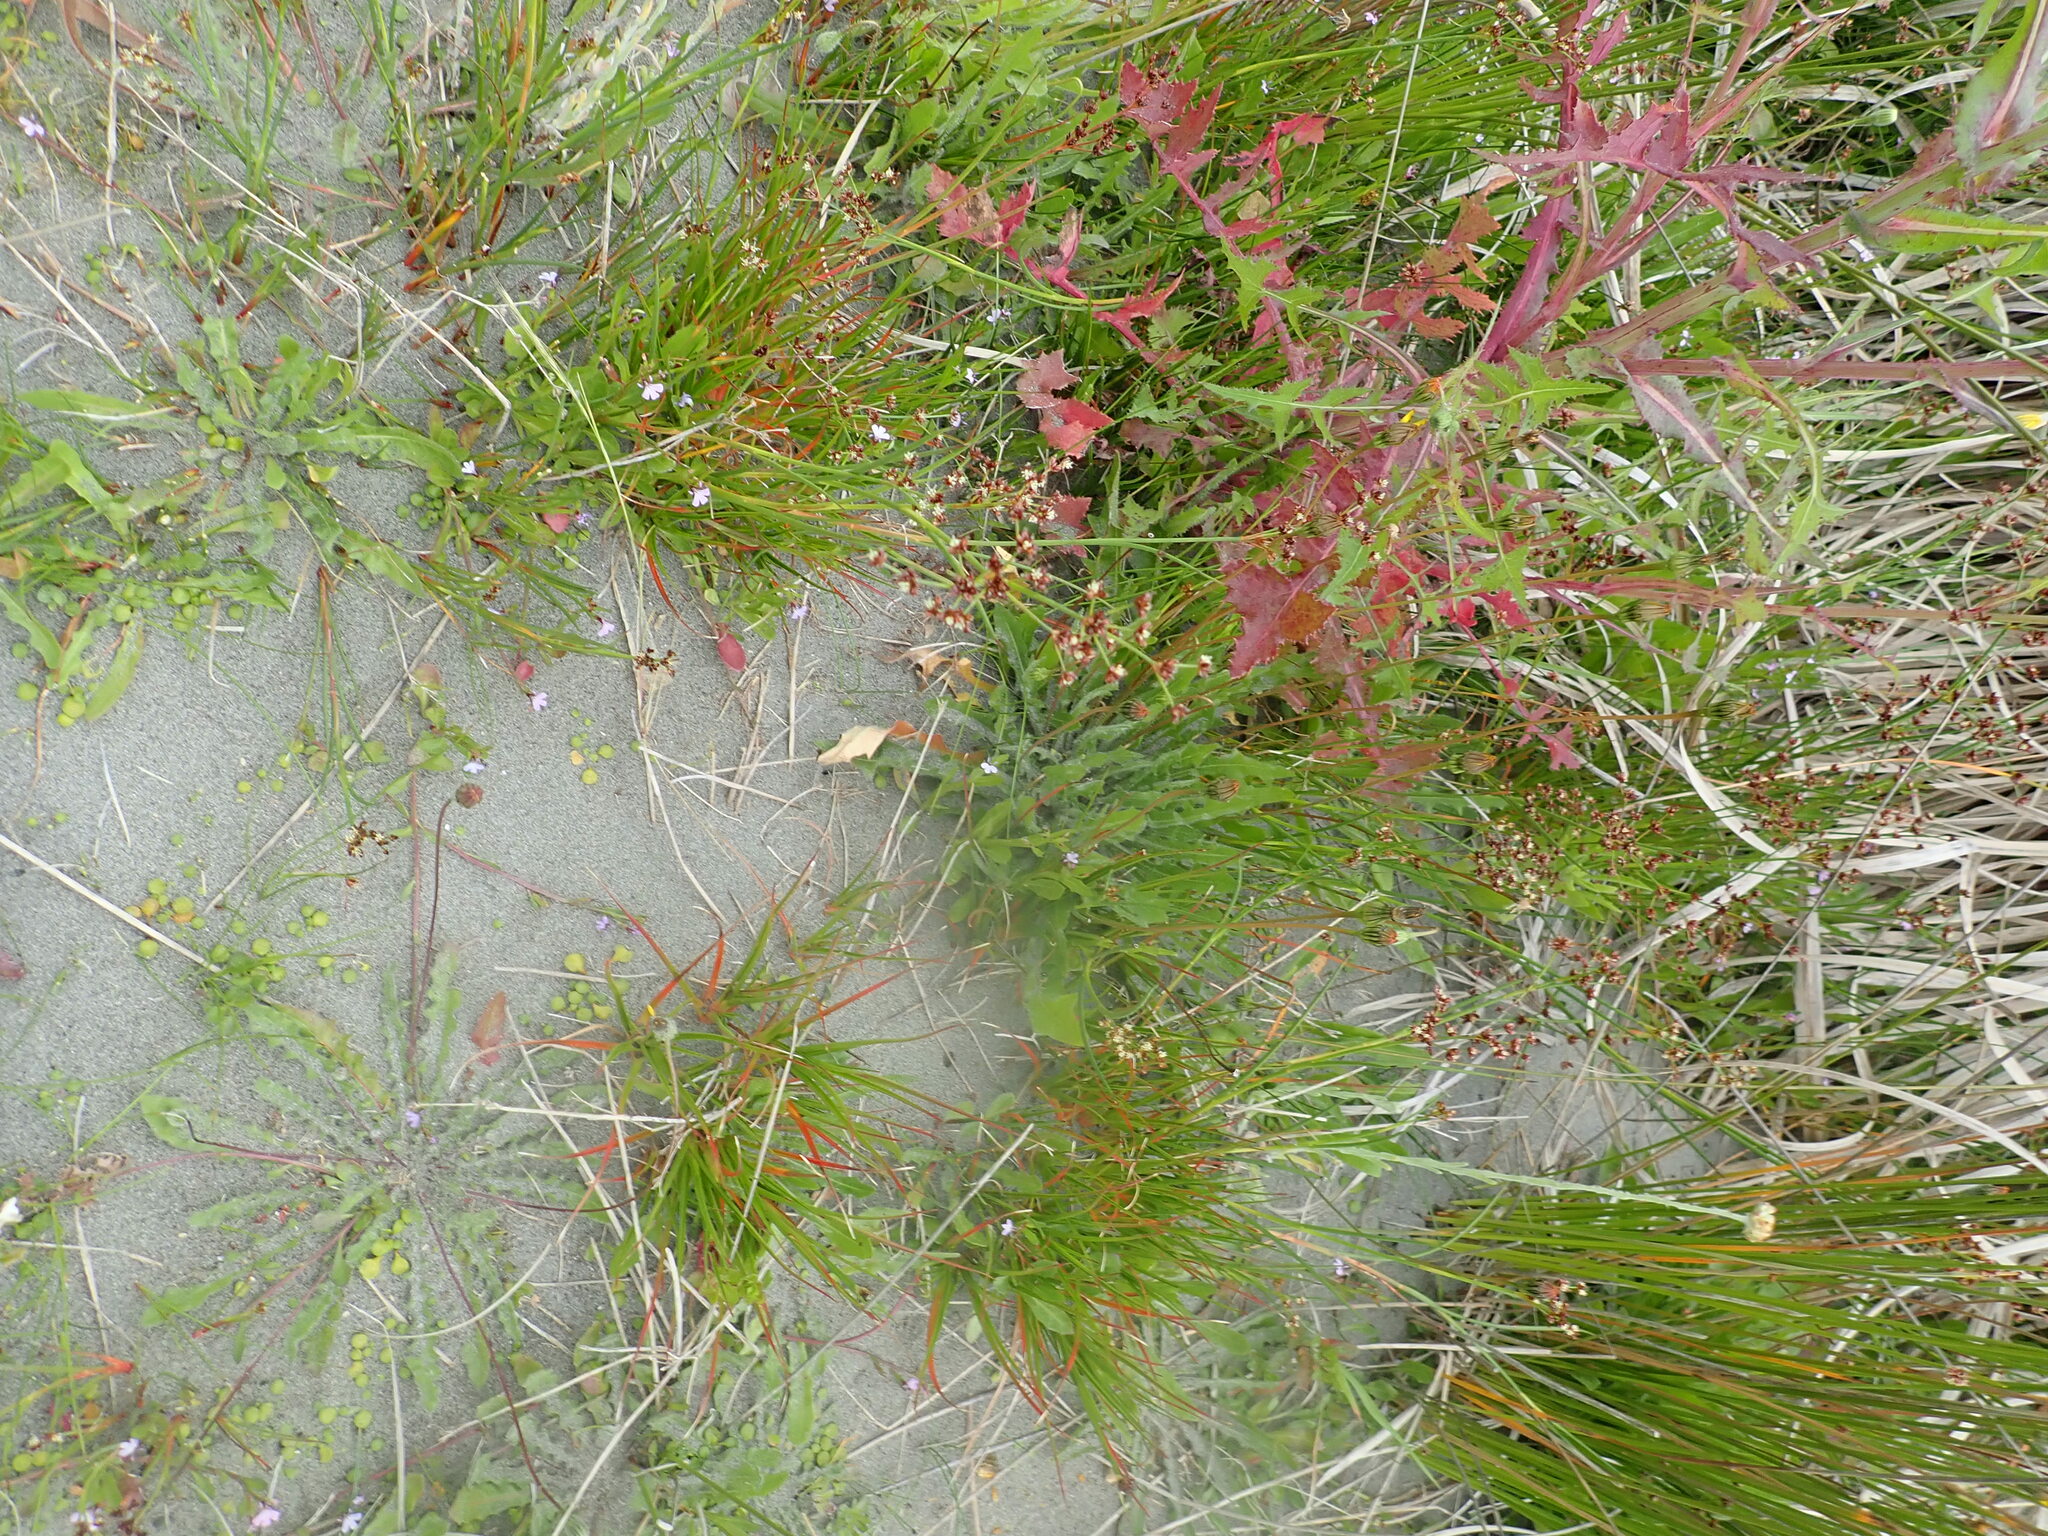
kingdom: Plantae
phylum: Tracheophyta
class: Liliopsida
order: Poales
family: Juncaceae
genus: Juncus
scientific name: Juncus caespiticius
